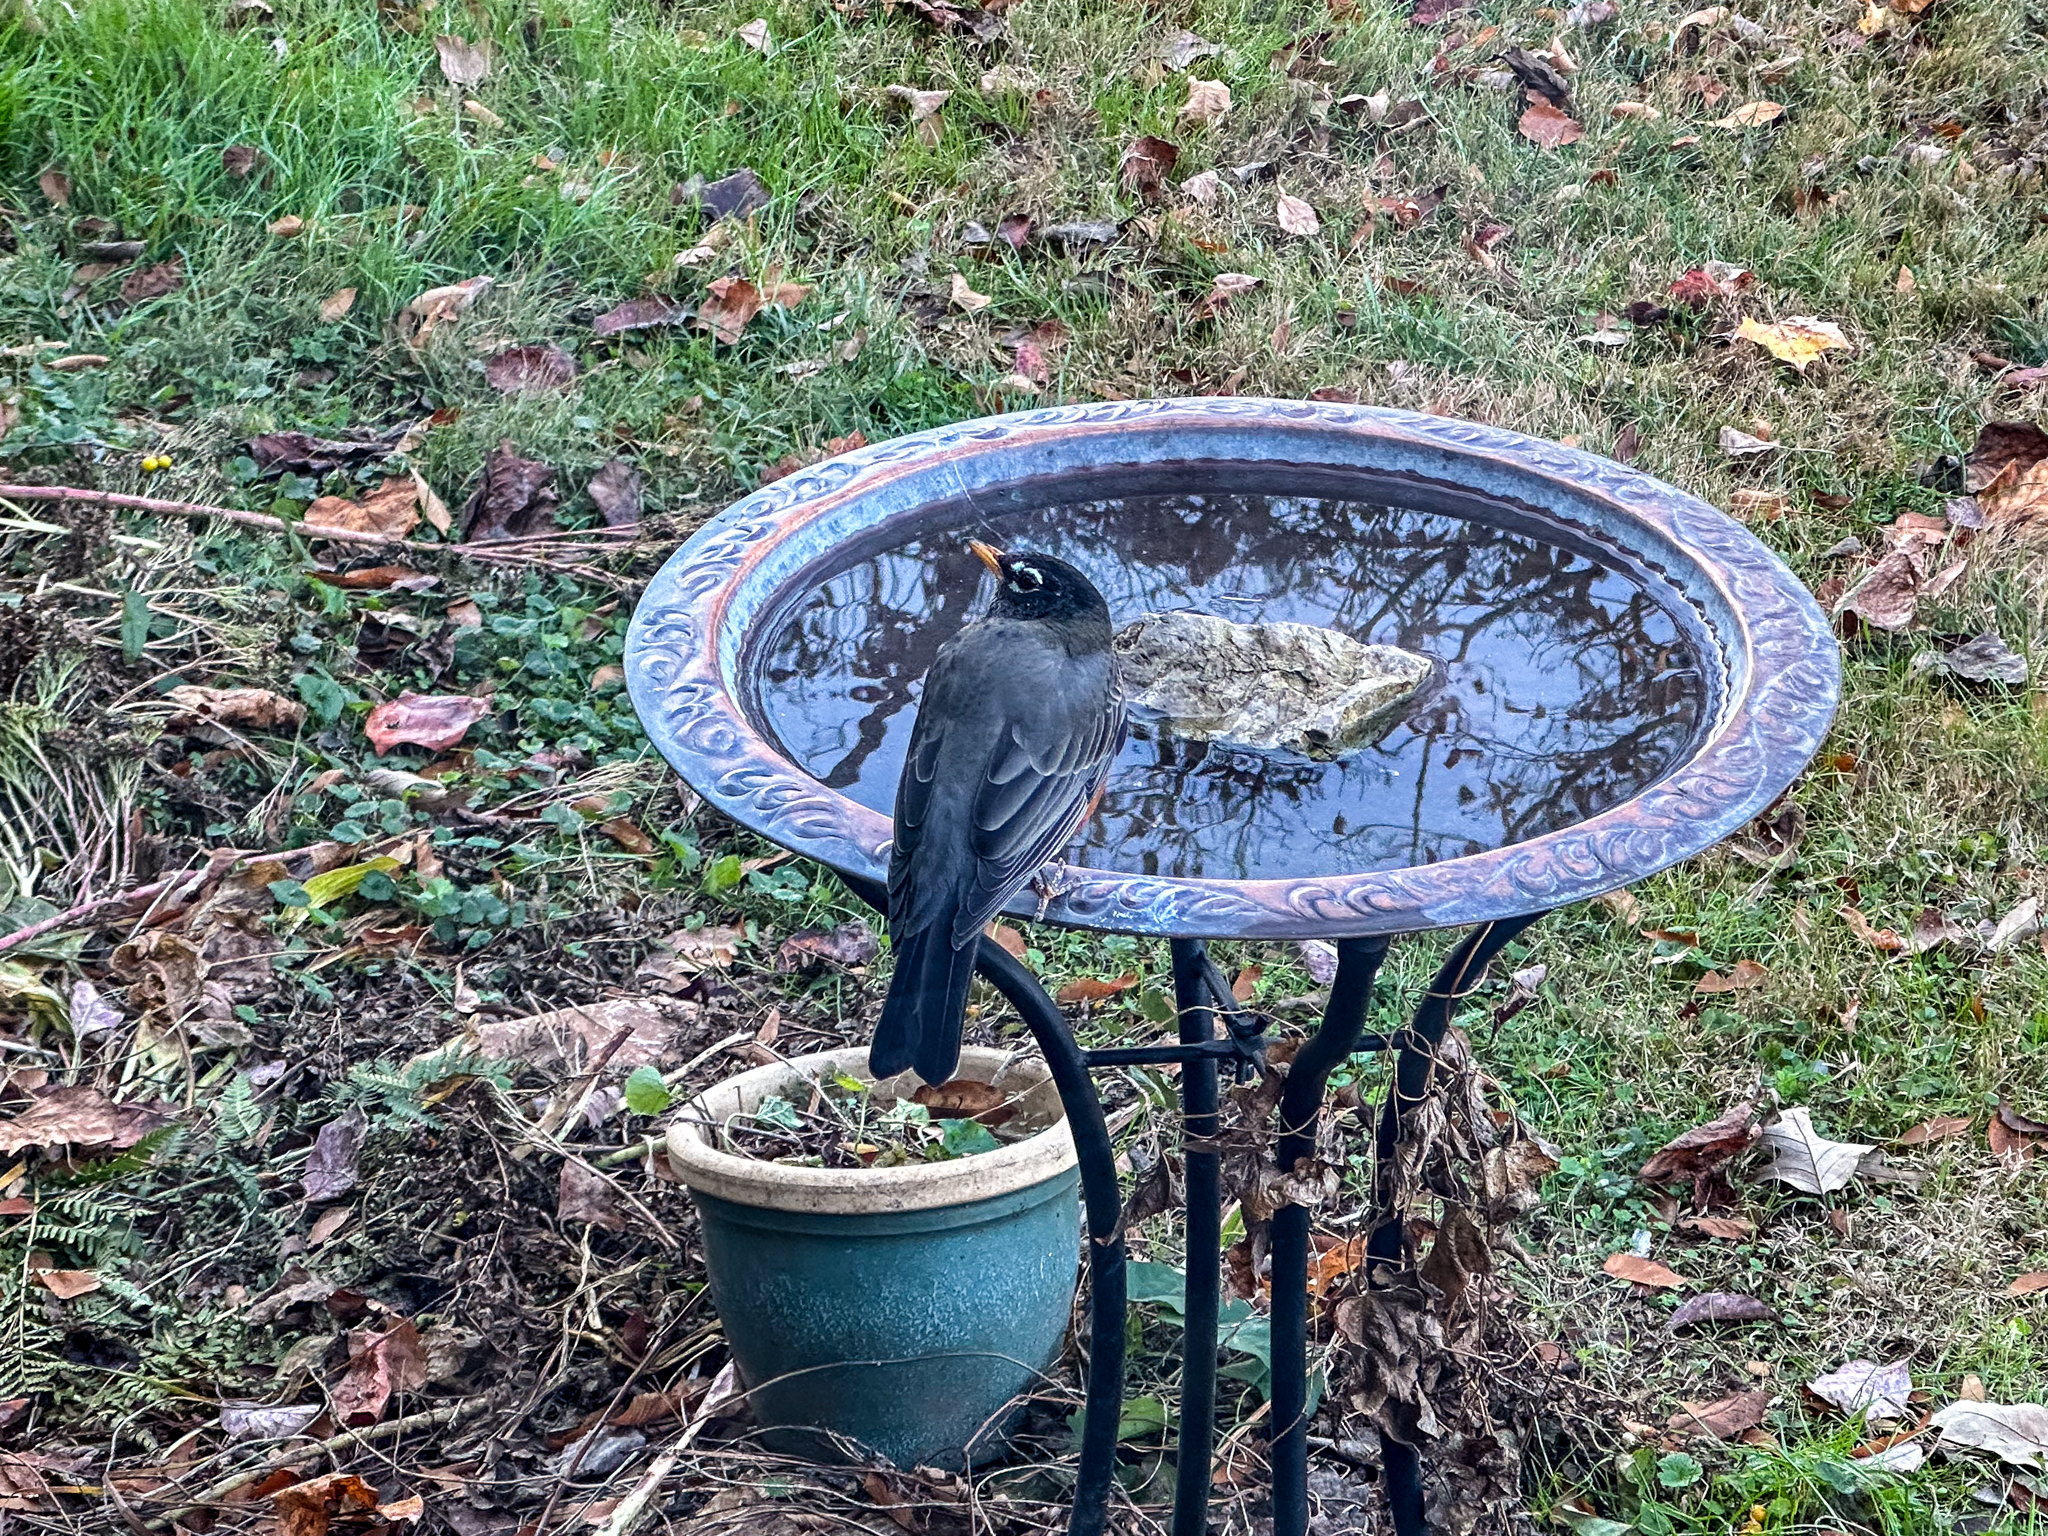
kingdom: Animalia
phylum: Chordata
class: Aves
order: Passeriformes
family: Turdidae
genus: Turdus
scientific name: Turdus migratorius
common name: American robin
